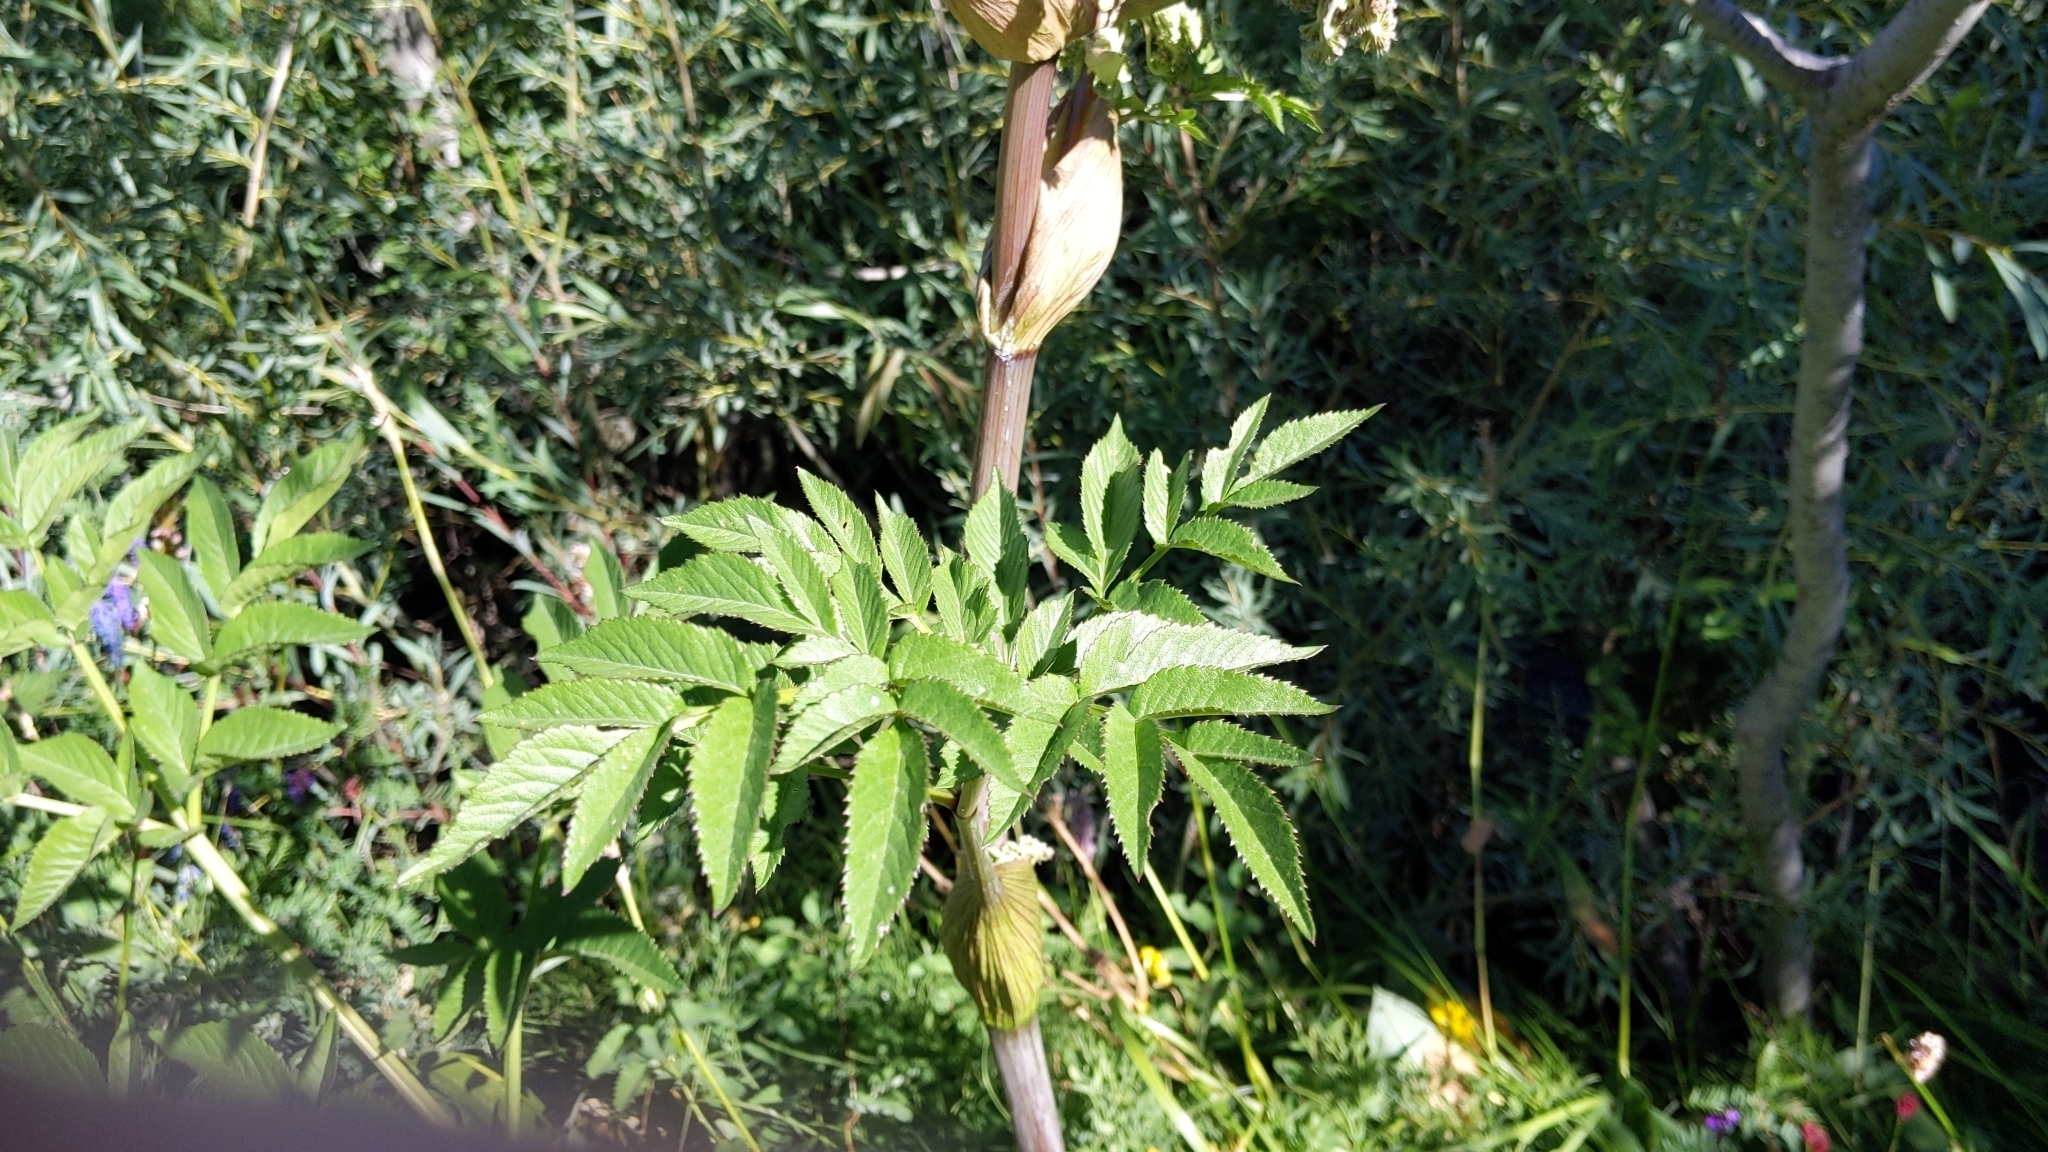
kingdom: Plantae
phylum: Tracheophyta
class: Magnoliopsida
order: Apiales
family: Apiaceae
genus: Angelica
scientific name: Angelica sylvestris
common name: Wild angelica
